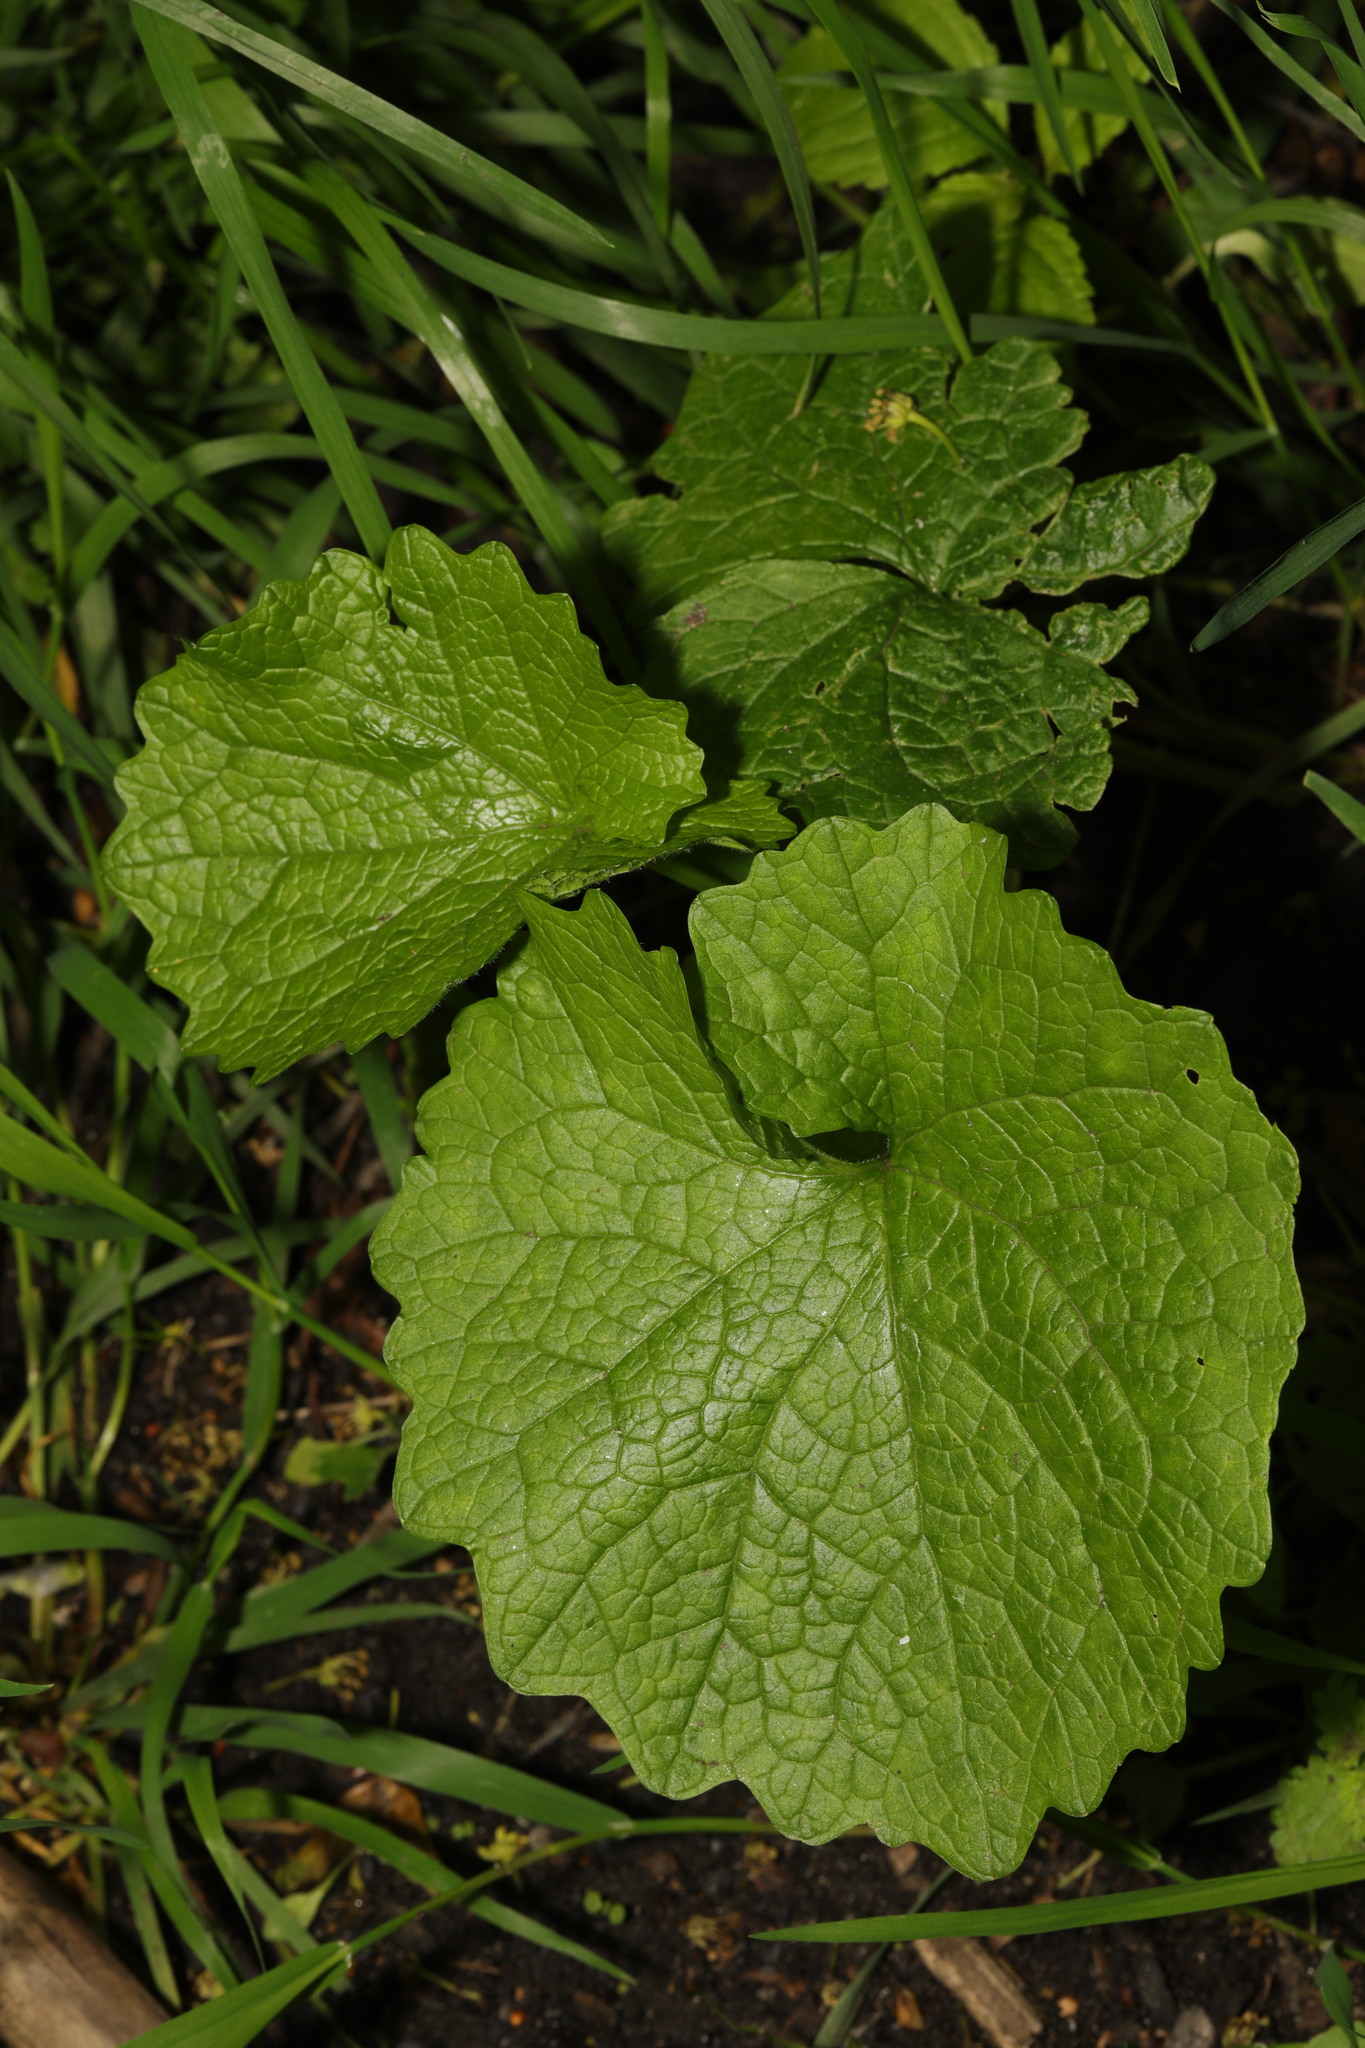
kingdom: Plantae
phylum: Tracheophyta
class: Magnoliopsida
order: Brassicales
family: Brassicaceae
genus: Alliaria
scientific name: Alliaria petiolata
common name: Garlic mustard
